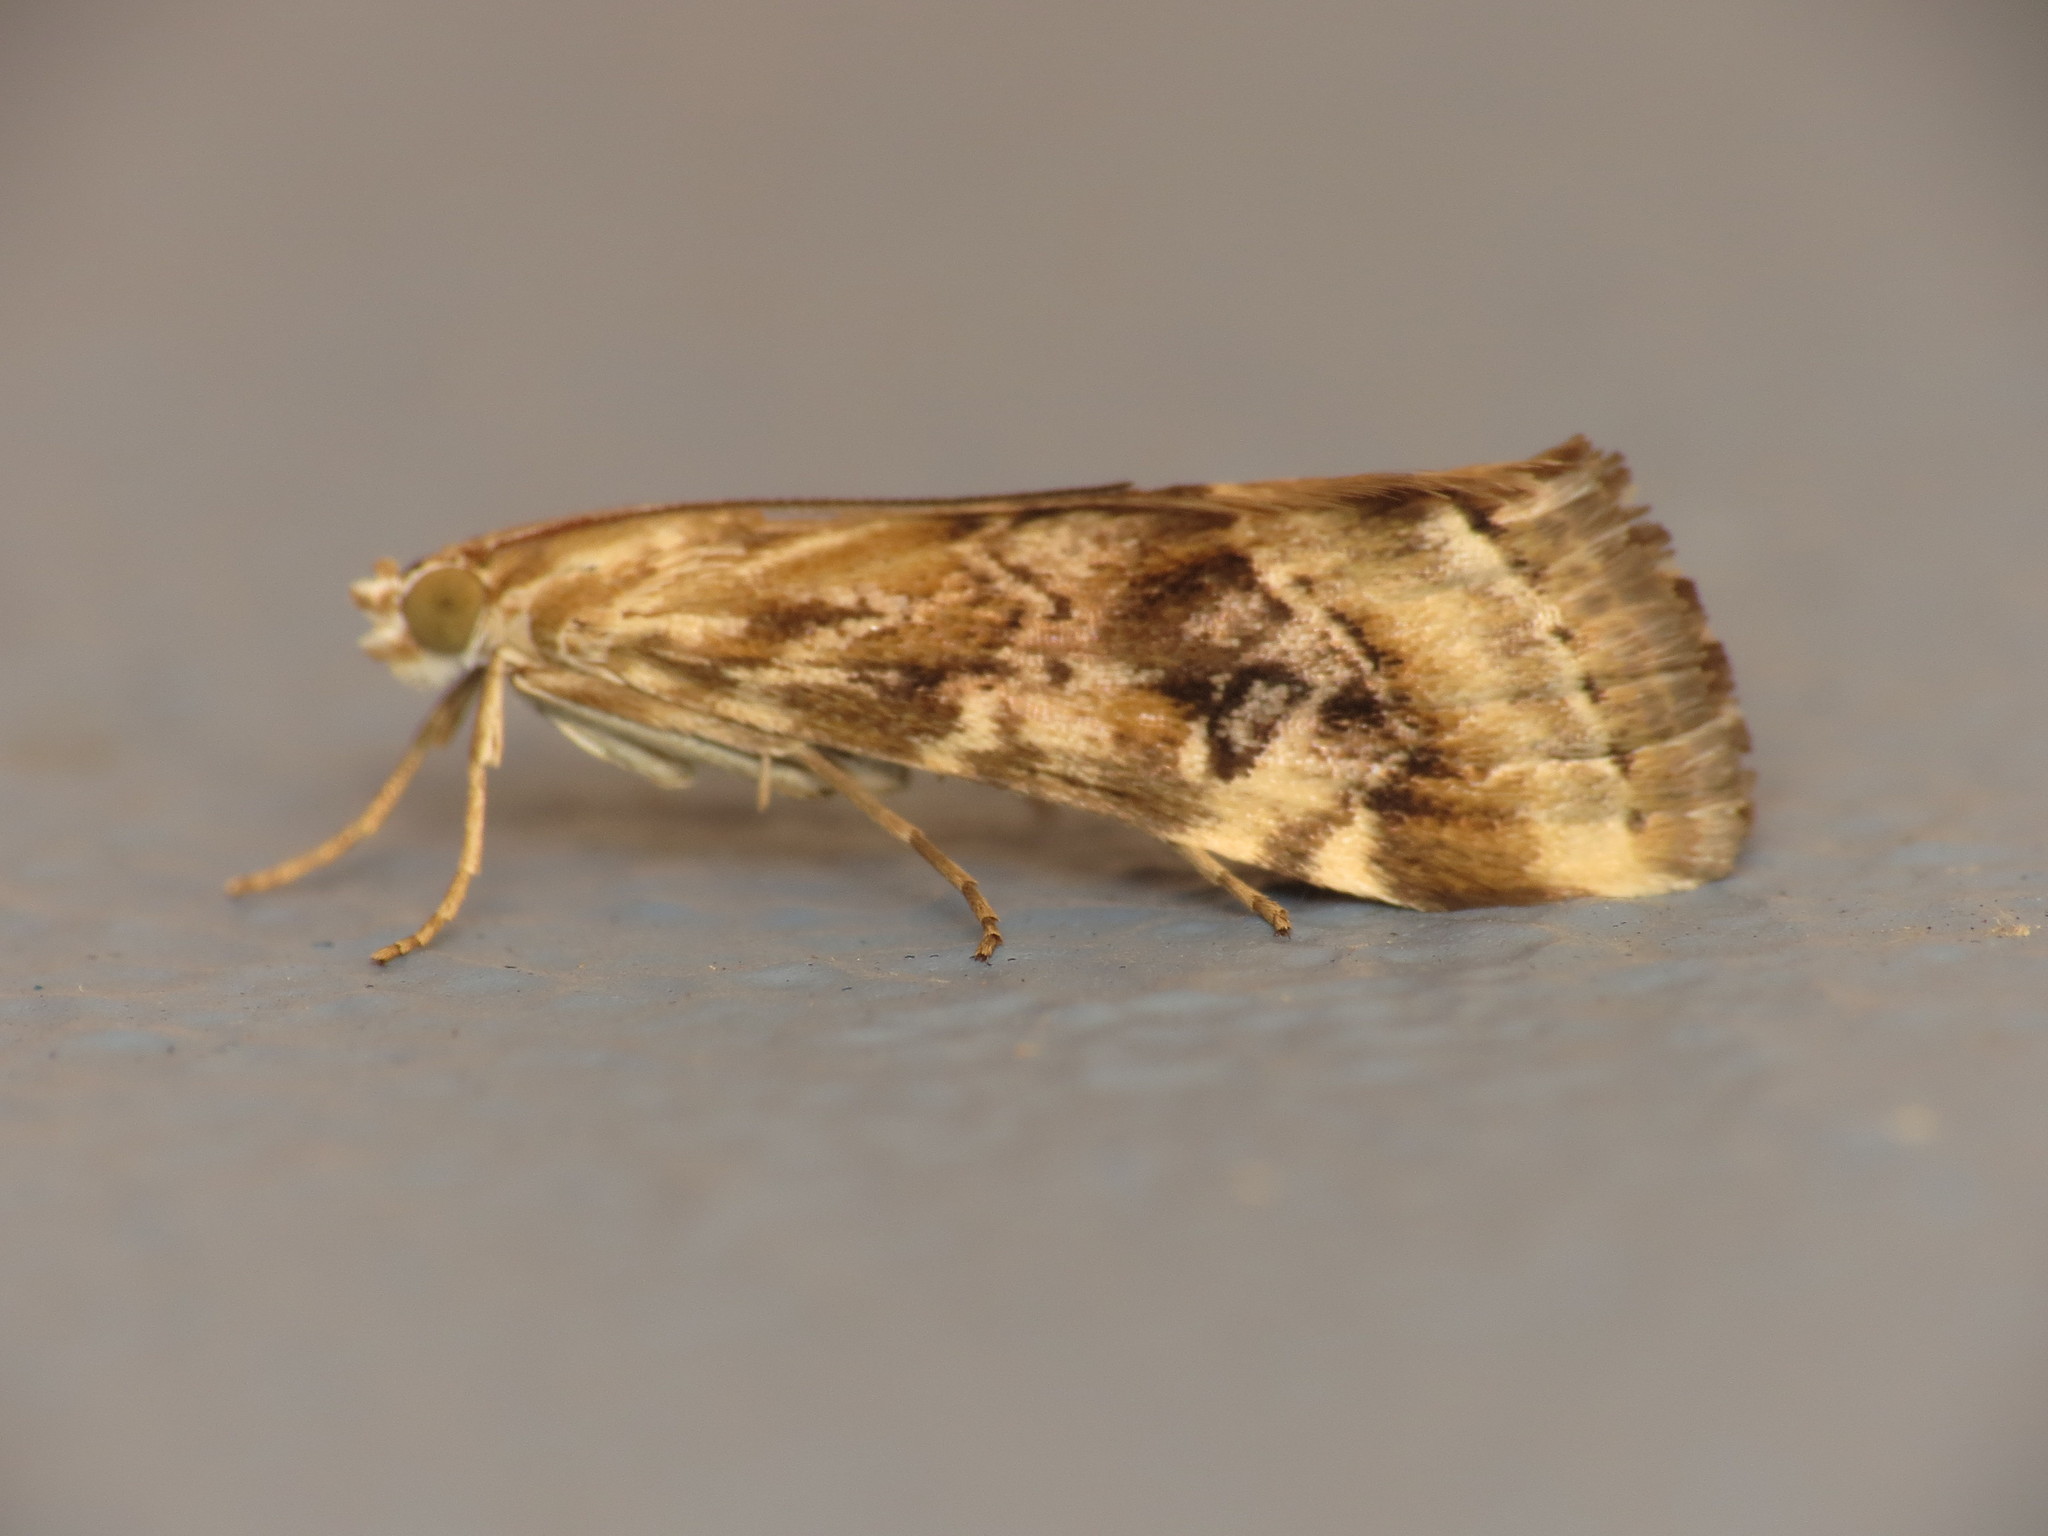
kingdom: Animalia
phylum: Arthropoda
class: Insecta
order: Lepidoptera
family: Crambidae
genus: Hellula
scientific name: Hellula hydralis
